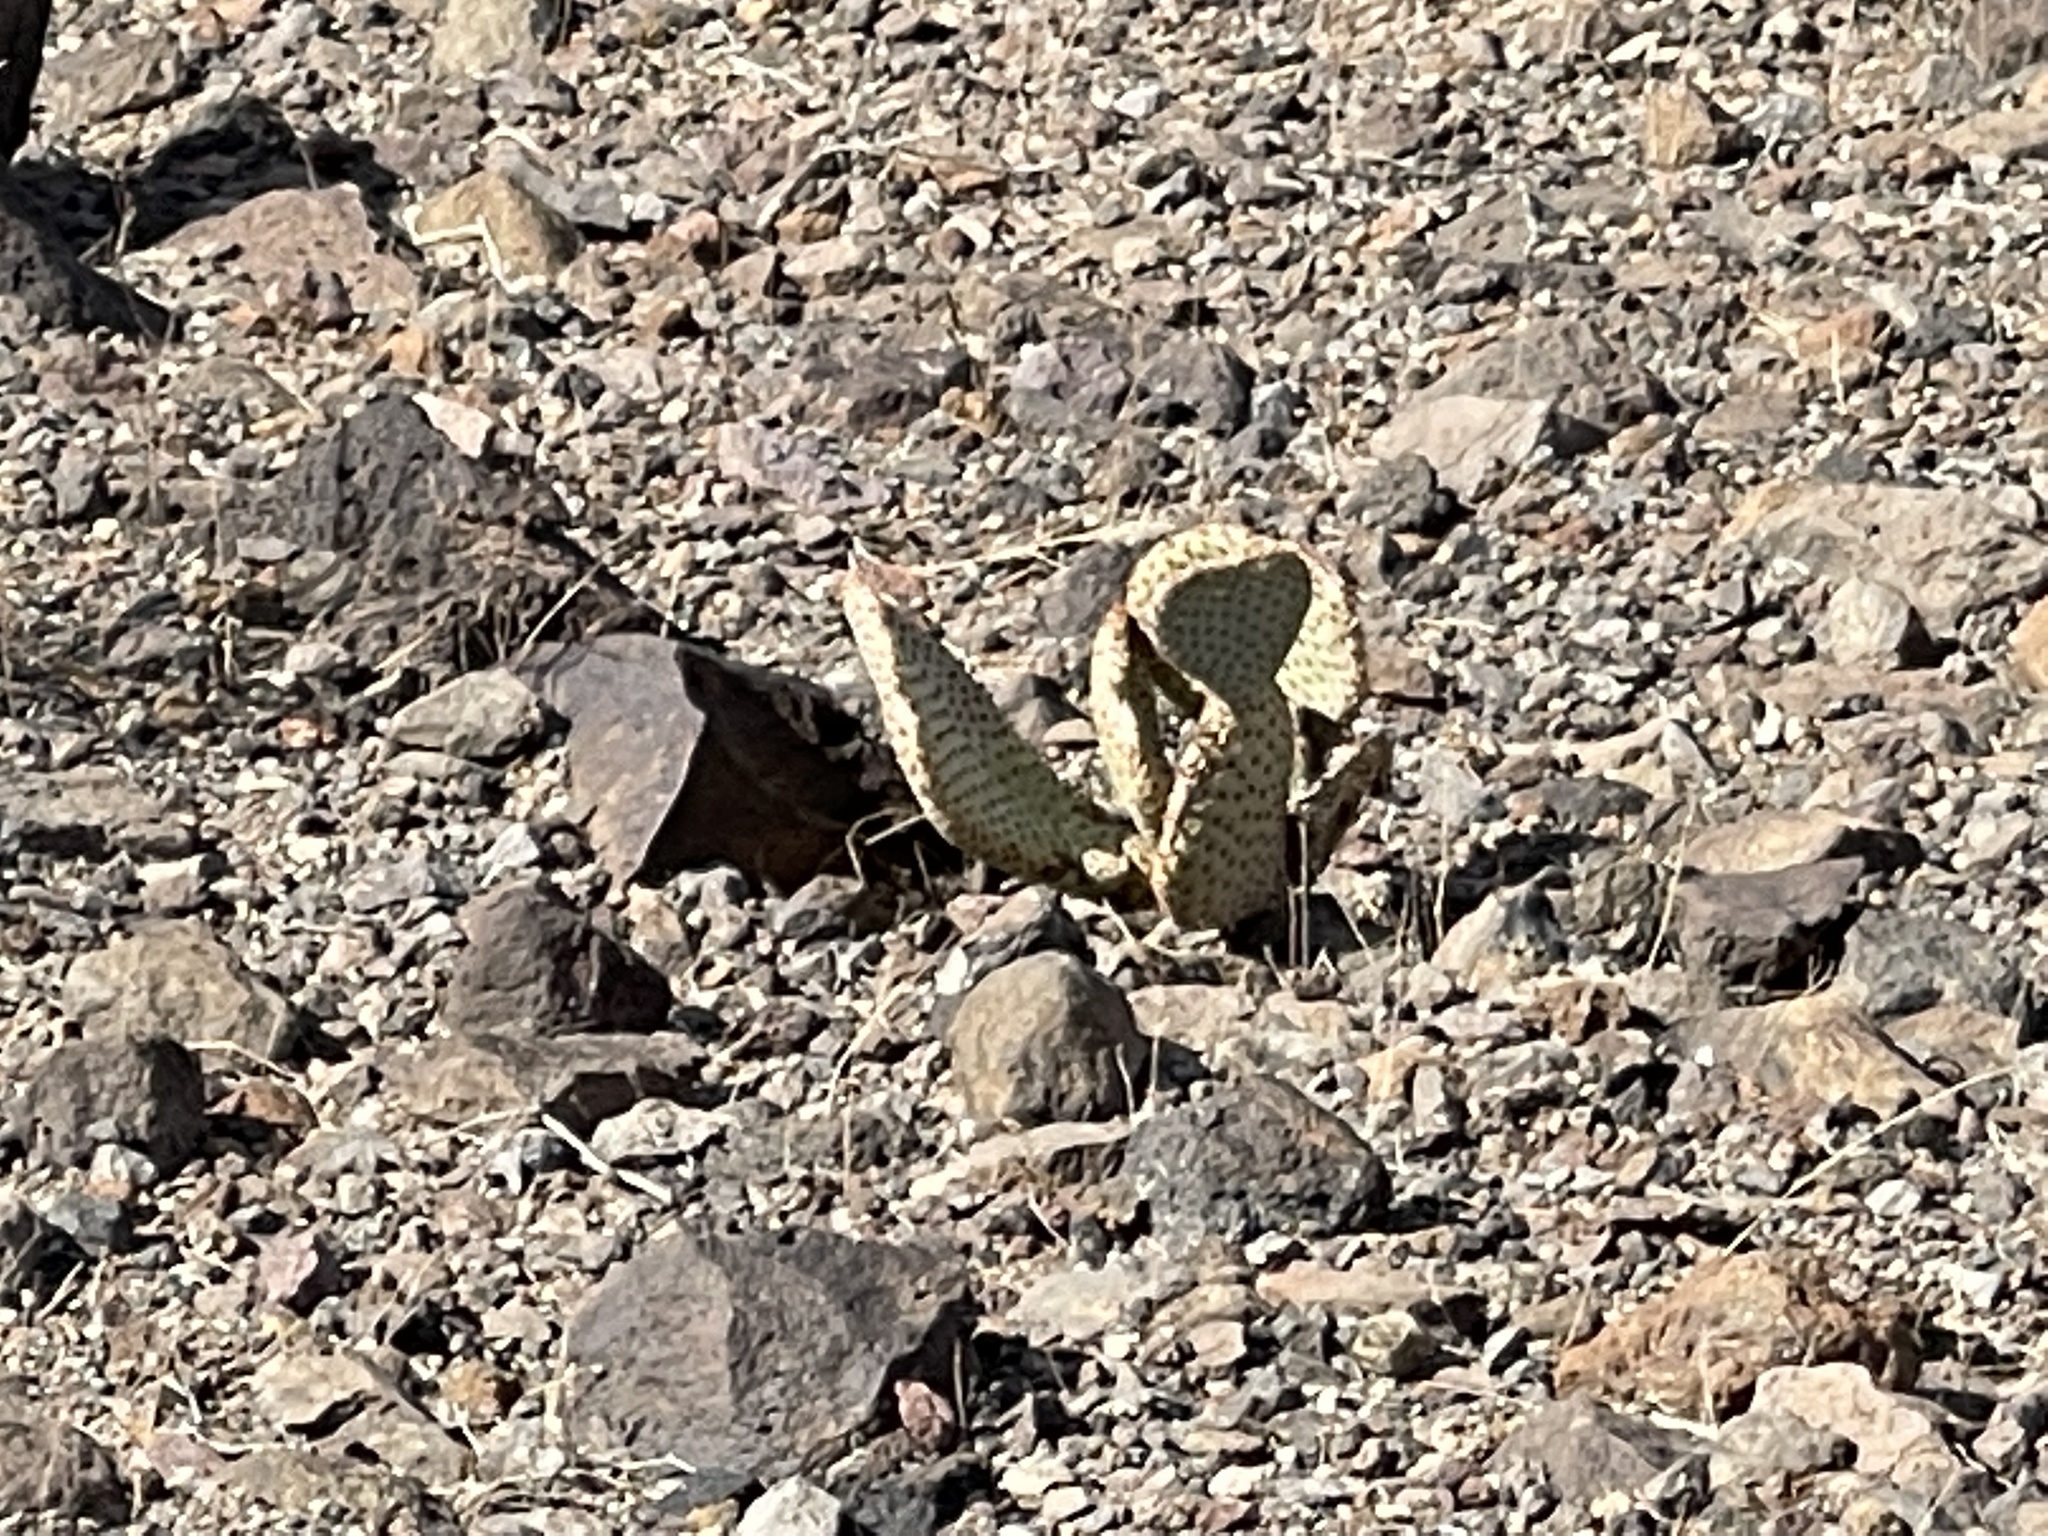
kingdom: Plantae
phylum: Tracheophyta
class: Magnoliopsida
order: Caryophyllales
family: Cactaceae
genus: Opuntia
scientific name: Opuntia basilaris
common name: Beavertail prickly-pear
